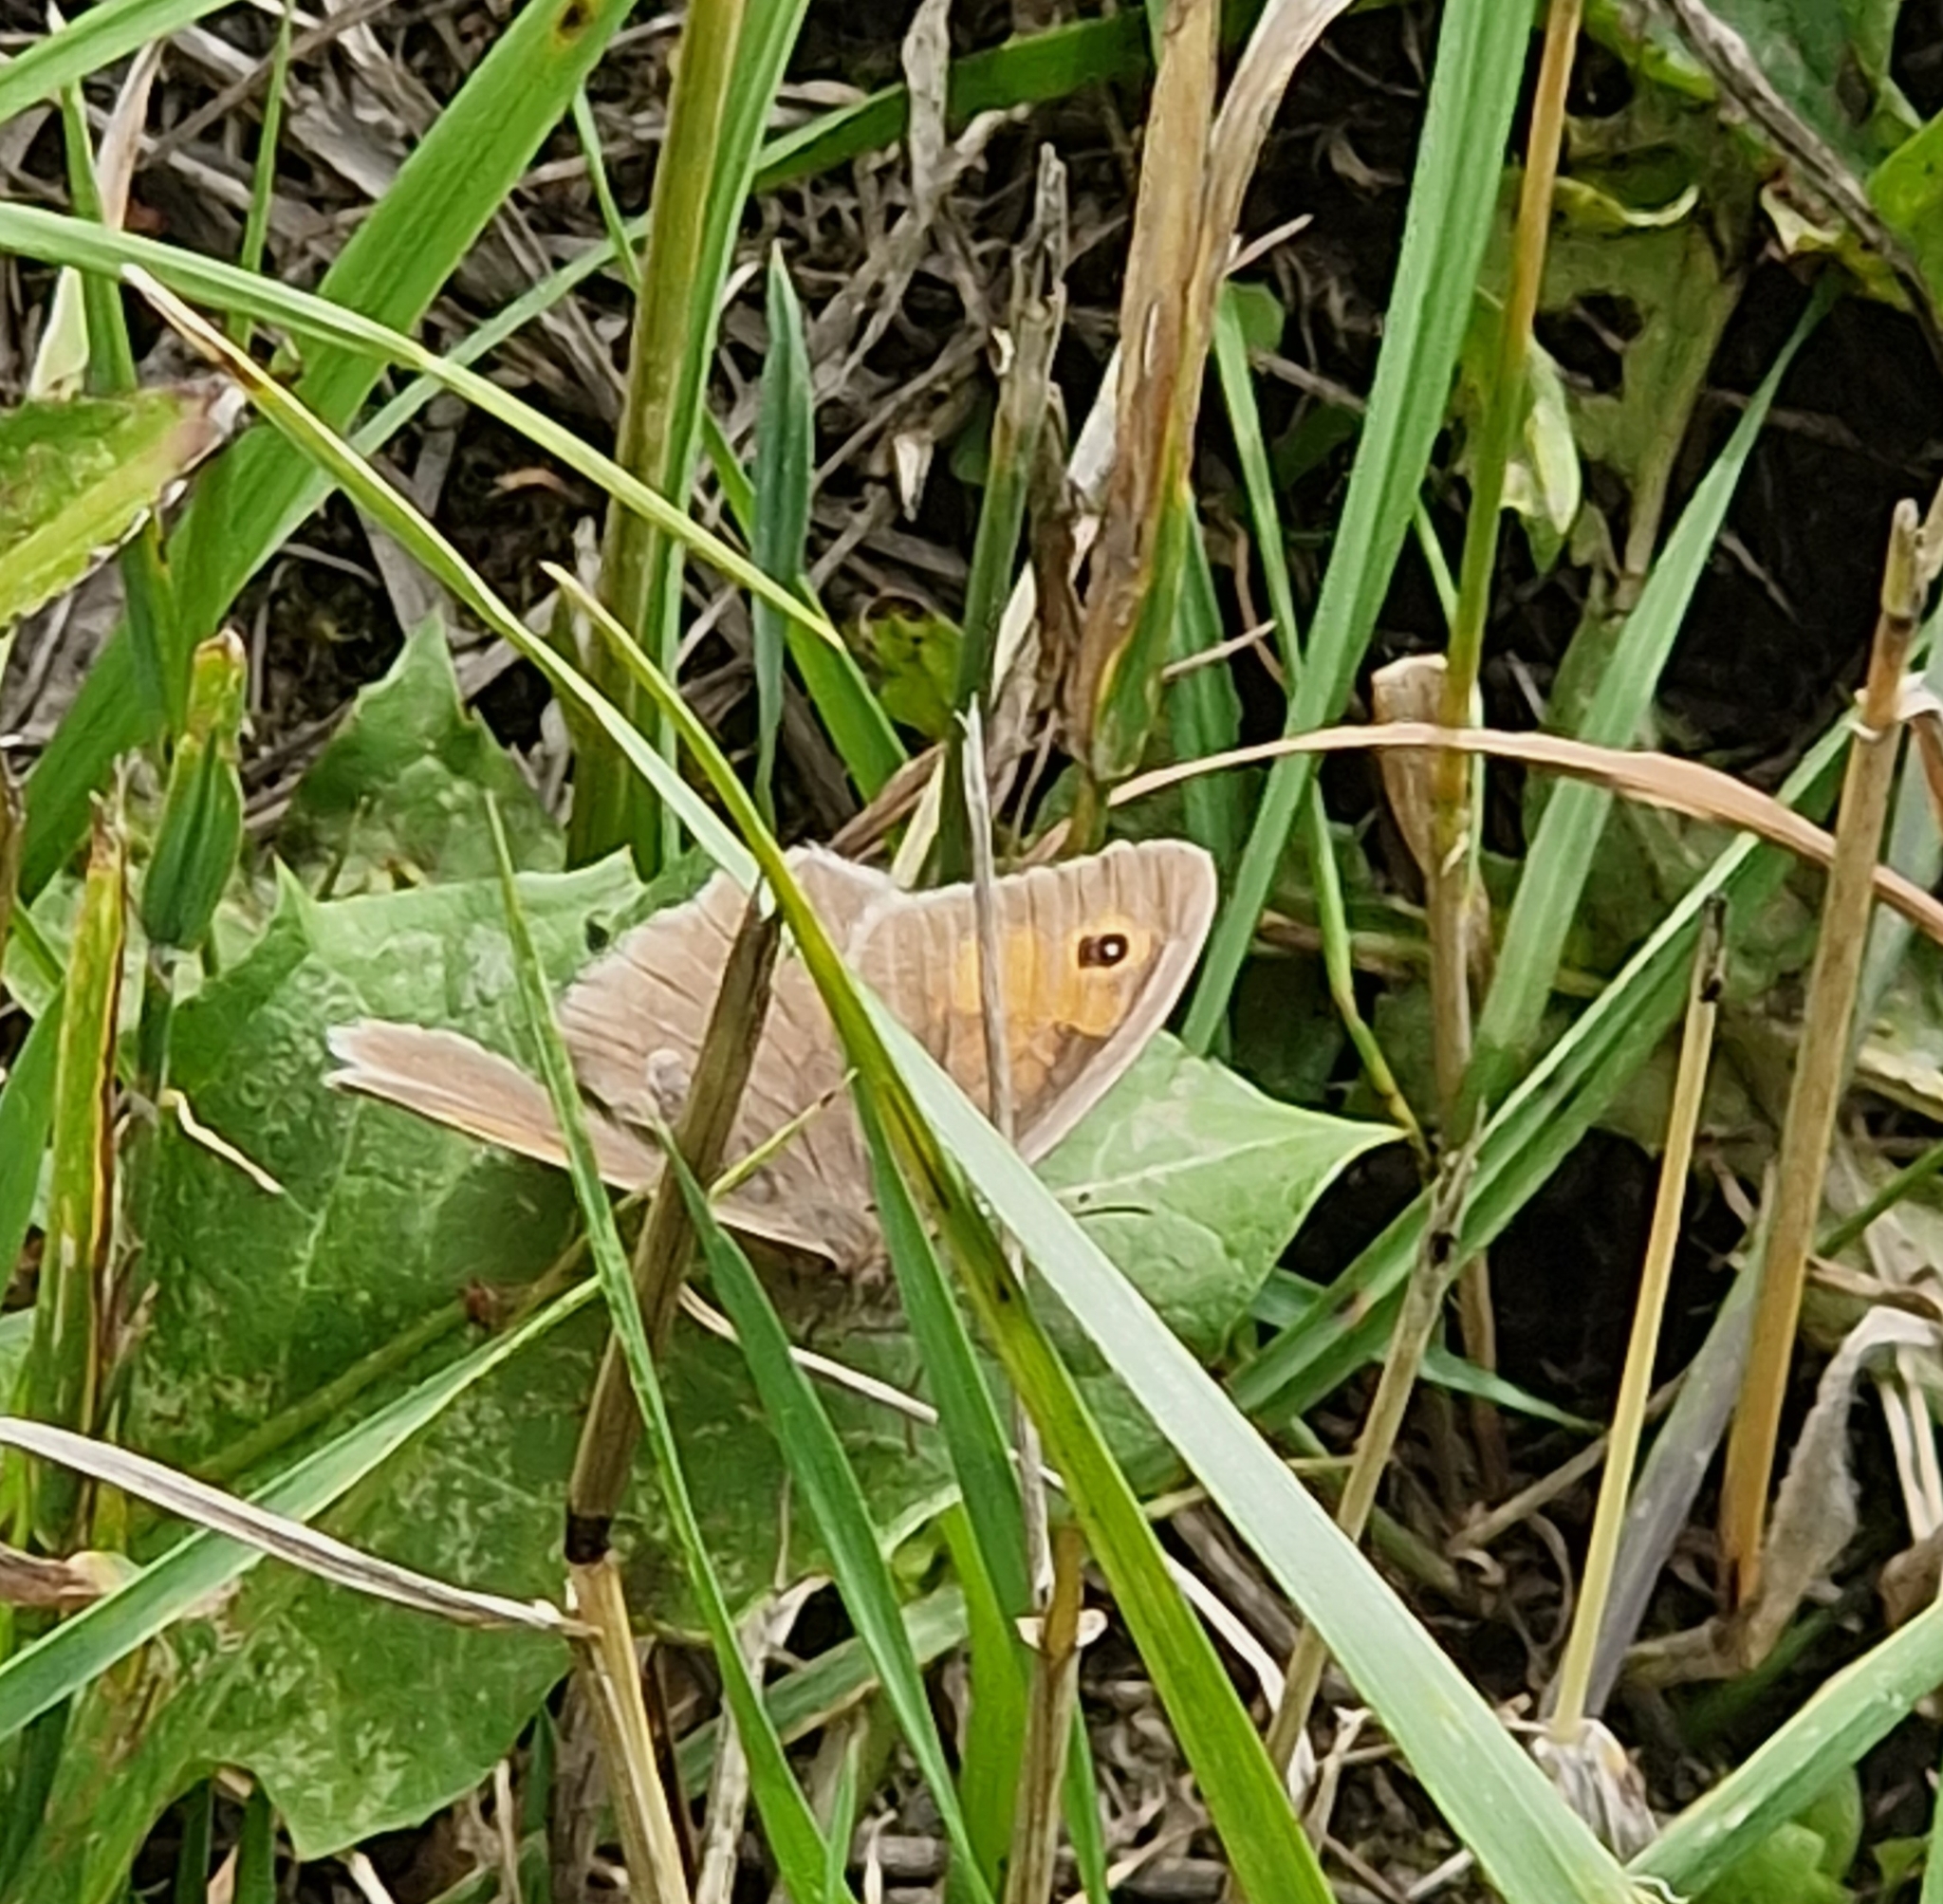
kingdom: Animalia
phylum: Arthropoda
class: Insecta
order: Lepidoptera
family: Nymphalidae
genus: Maniola
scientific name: Maniola jurtina
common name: Meadow brown
